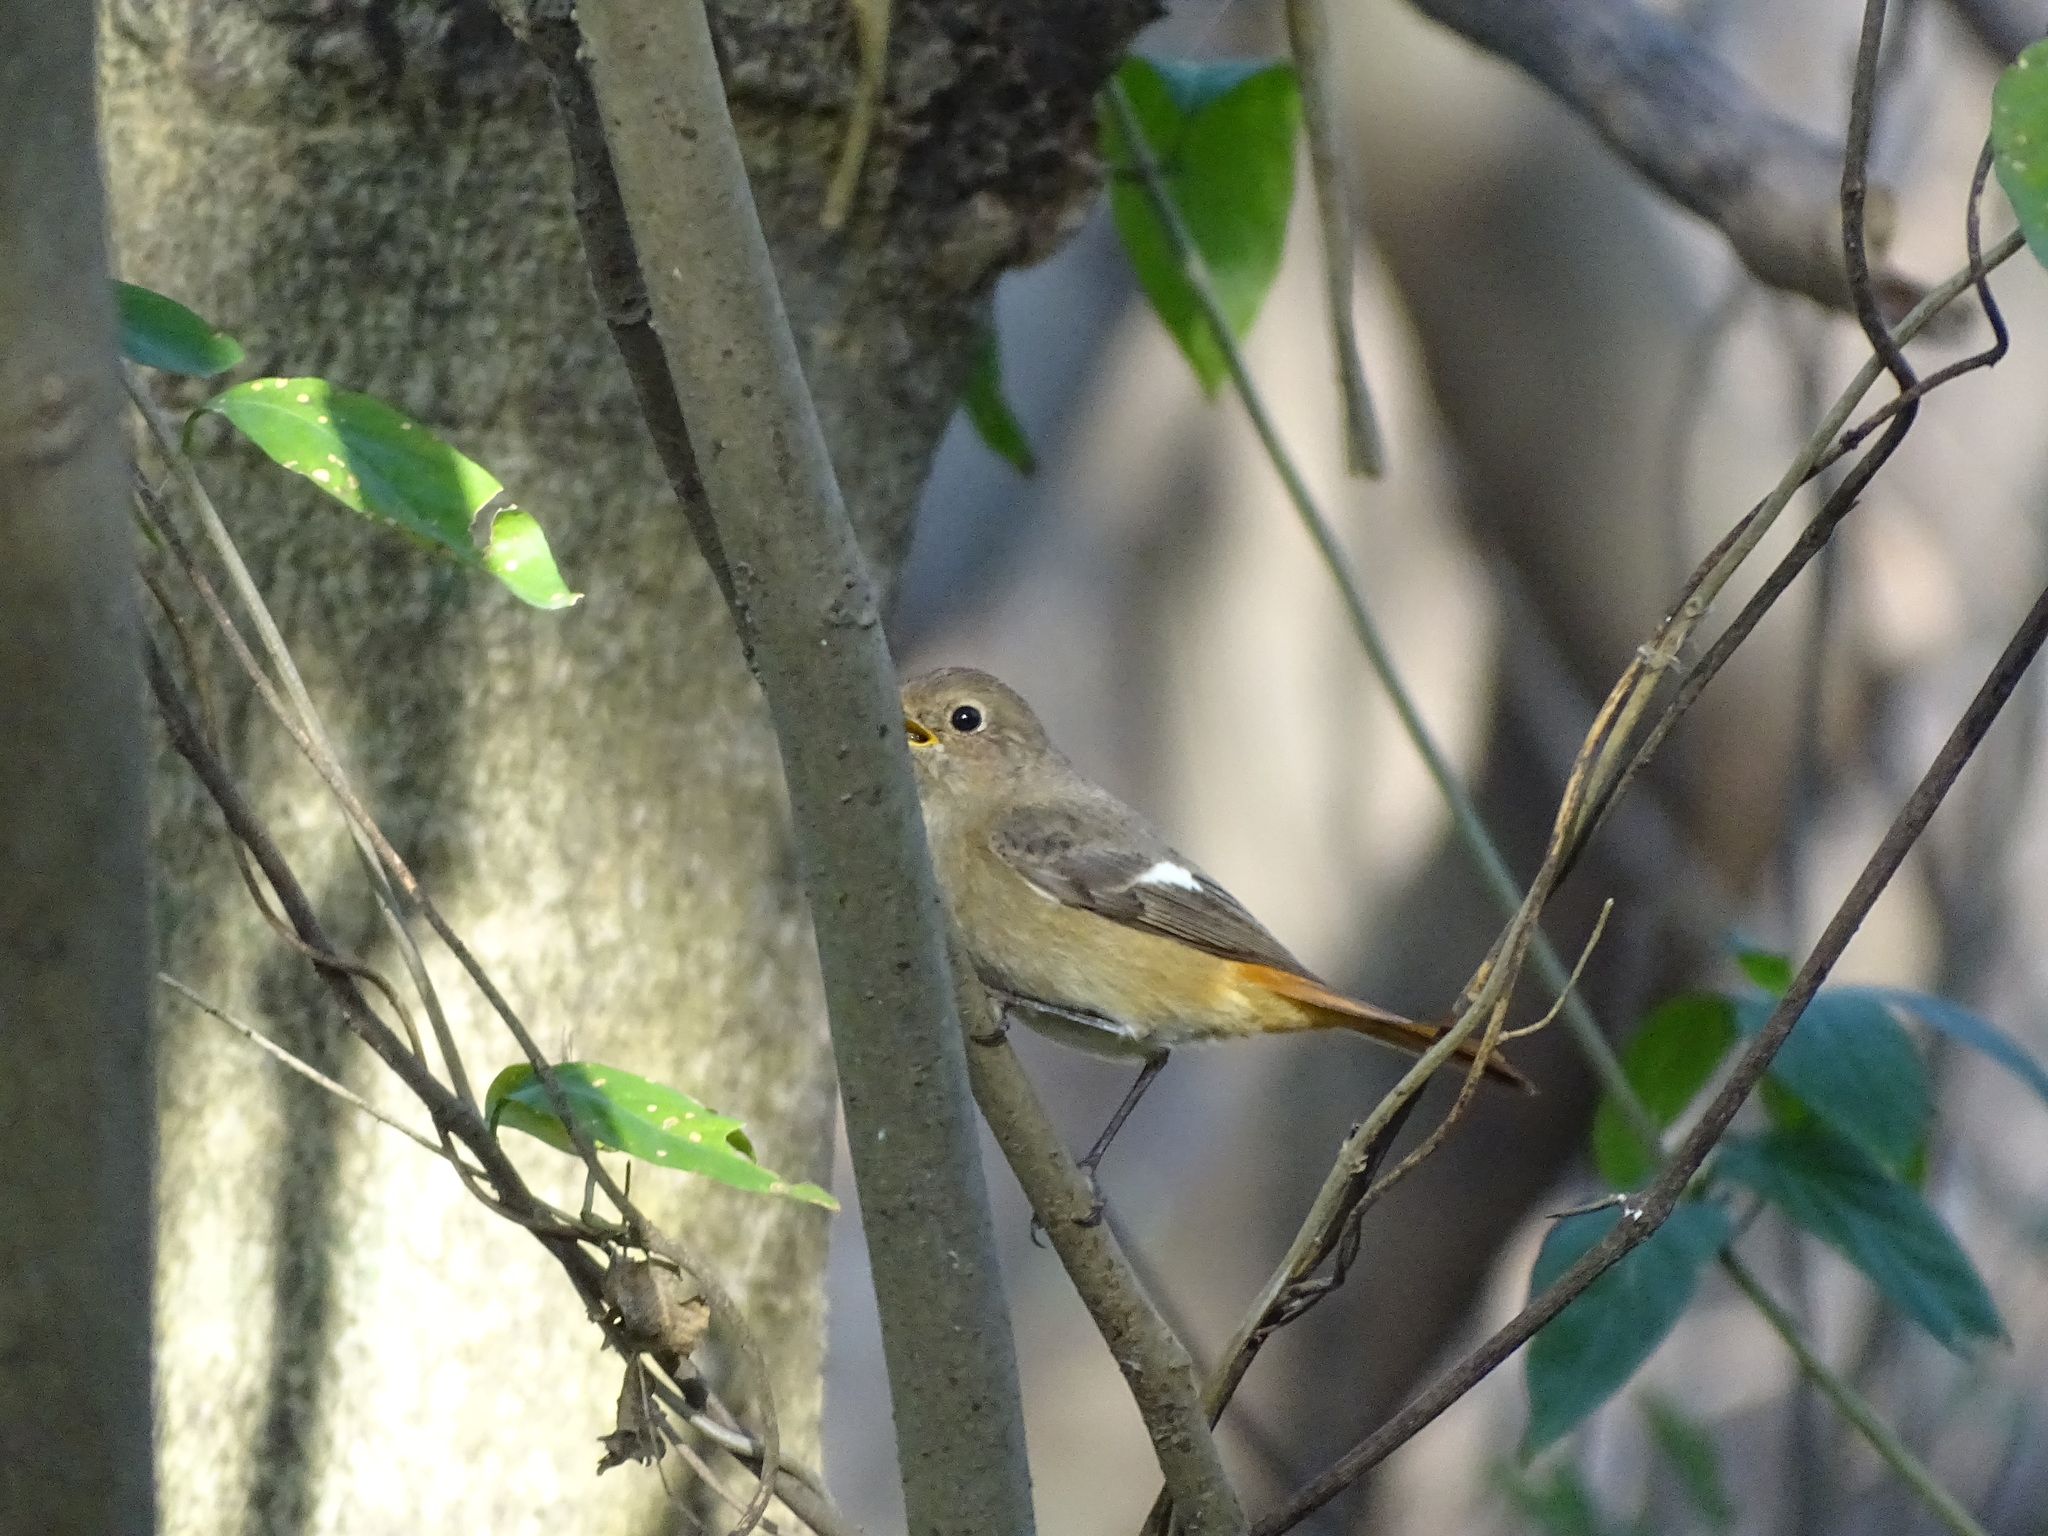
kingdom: Animalia
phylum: Chordata
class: Aves
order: Passeriformes
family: Muscicapidae
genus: Phoenicurus
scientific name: Phoenicurus auroreus
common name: Daurian redstart
